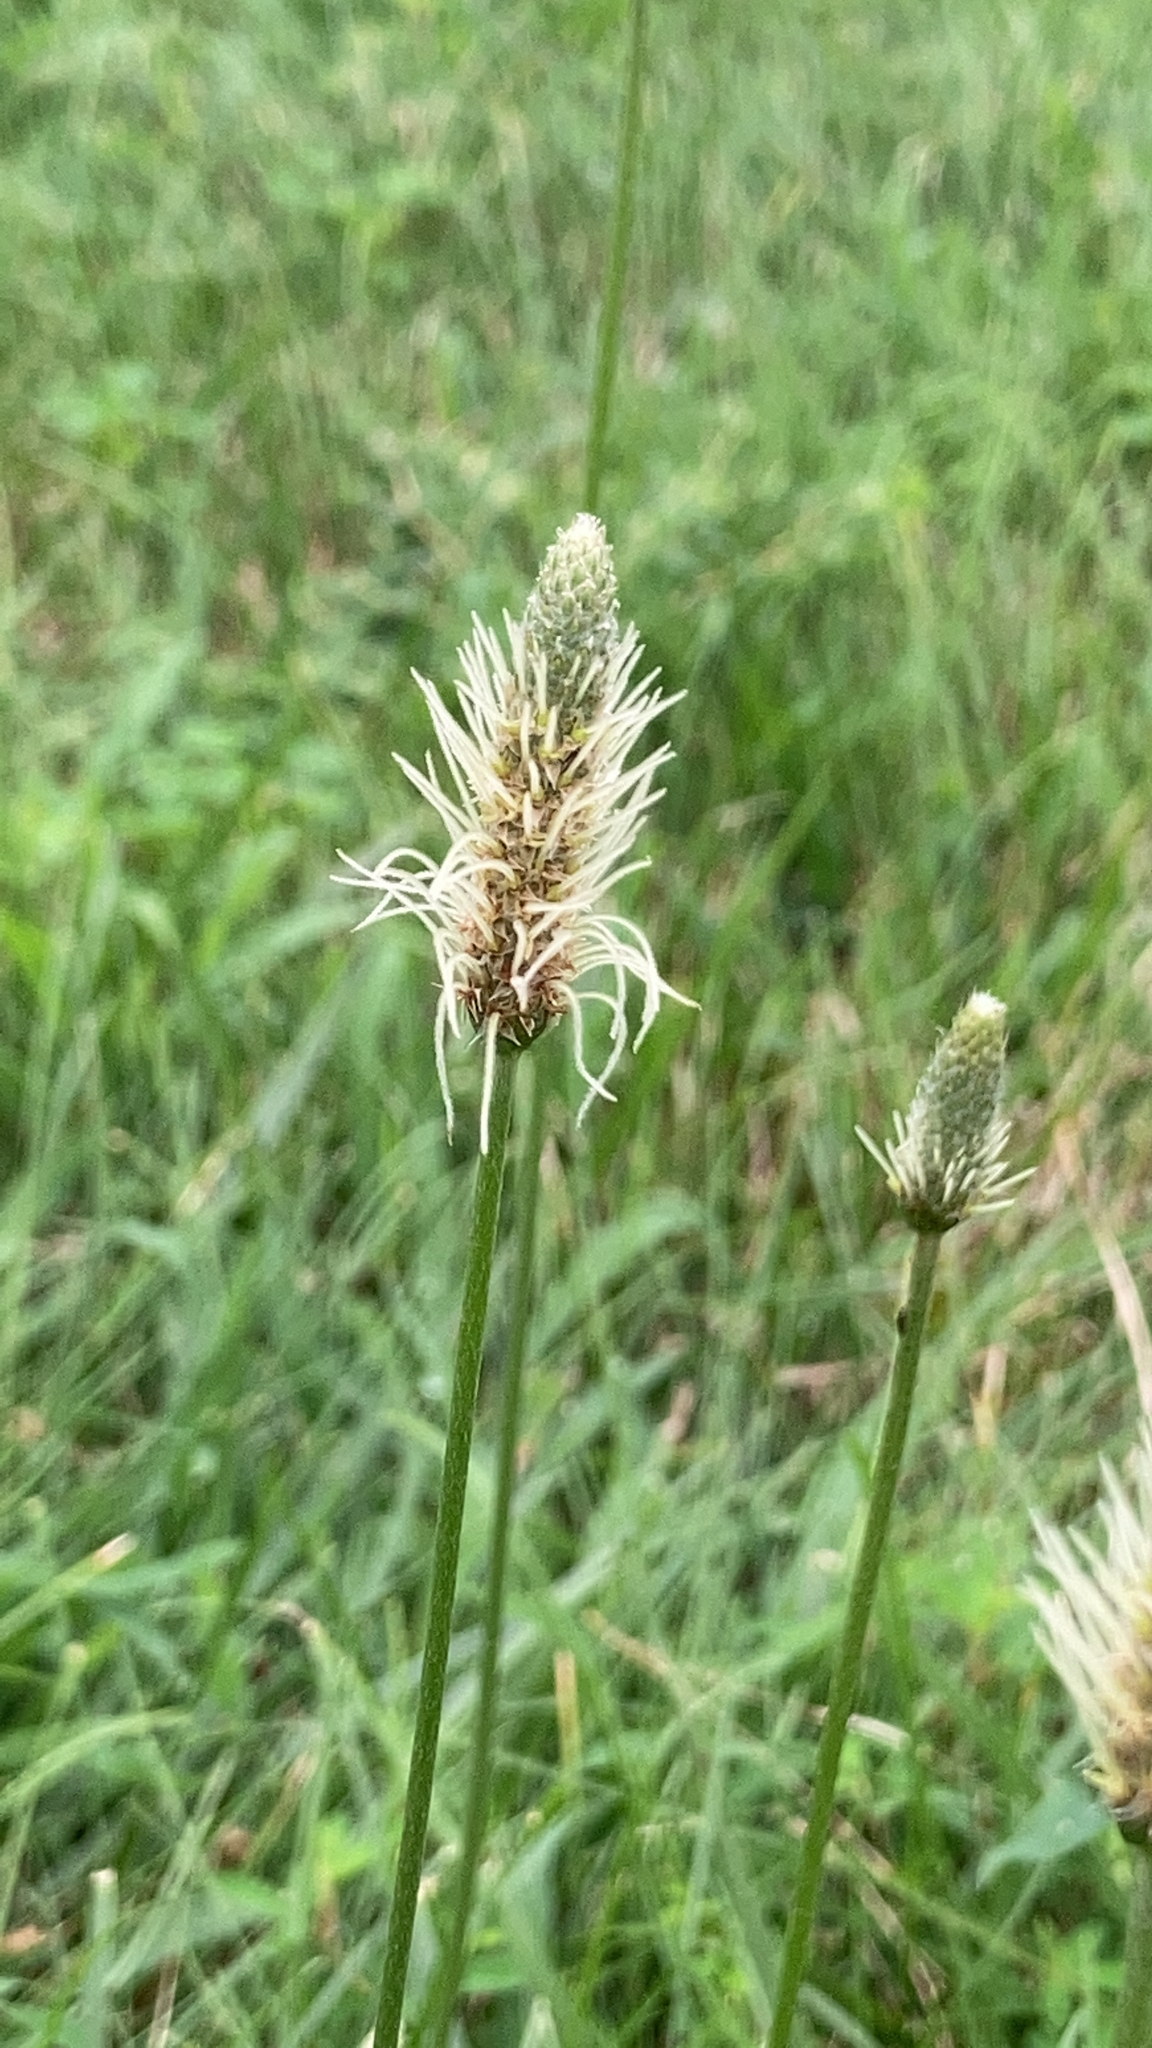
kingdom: Plantae
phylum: Tracheophyta
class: Magnoliopsida
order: Lamiales
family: Plantaginaceae
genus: Plantago
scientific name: Plantago lanceolata
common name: Ribwort plantain
